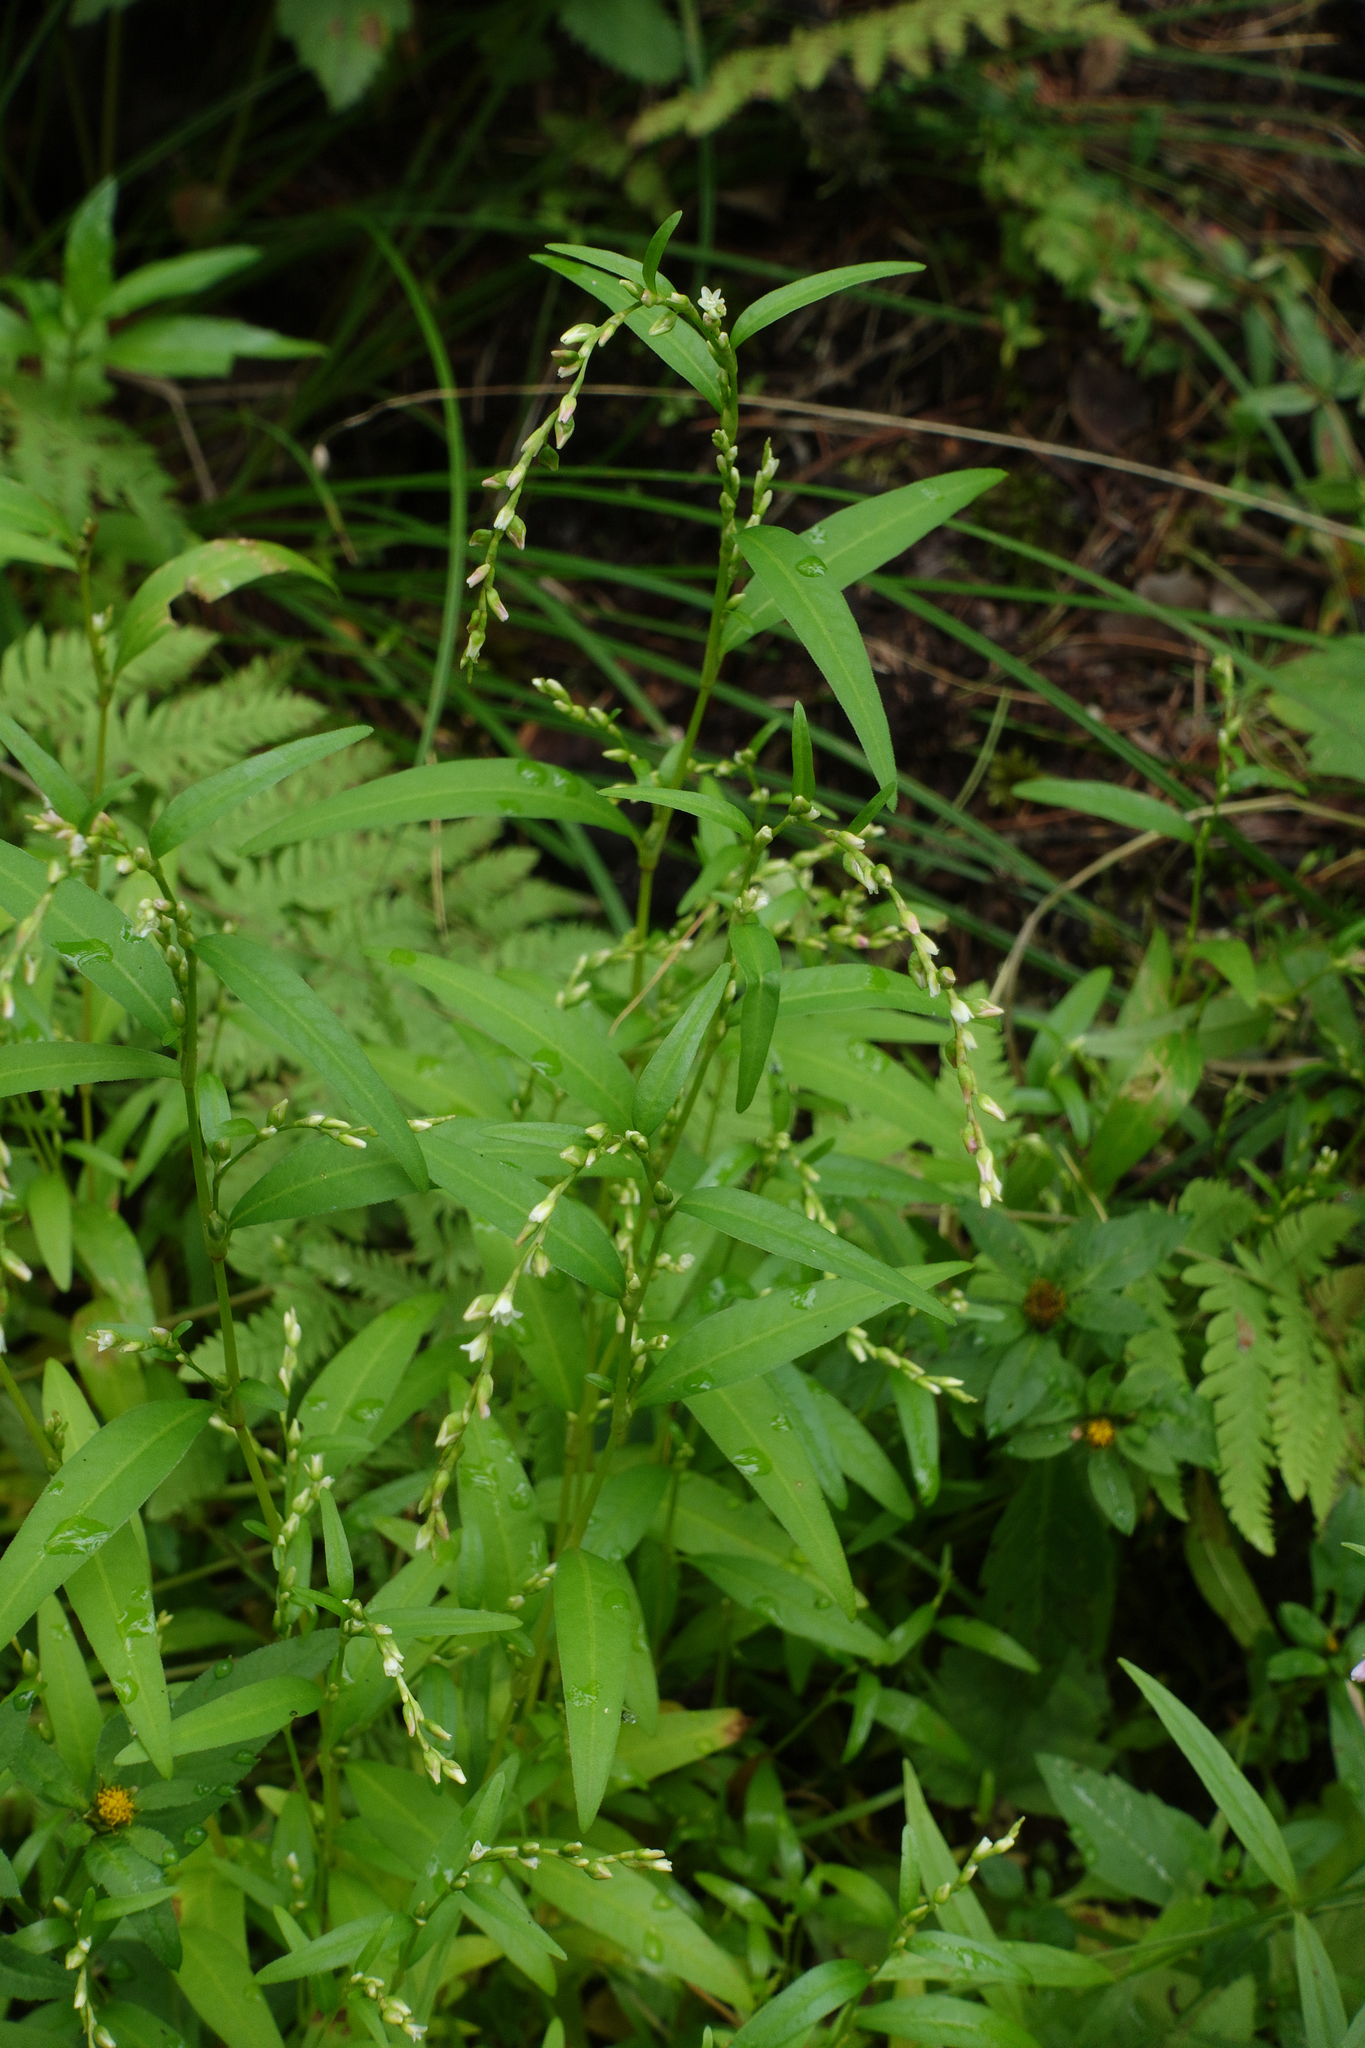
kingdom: Plantae
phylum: Tracheophyta
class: Magnoliopsida
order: Caryophyllales
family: Polygonaceae
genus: Persicaria
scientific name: Persicaria hydropiper
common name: Water-pepper
